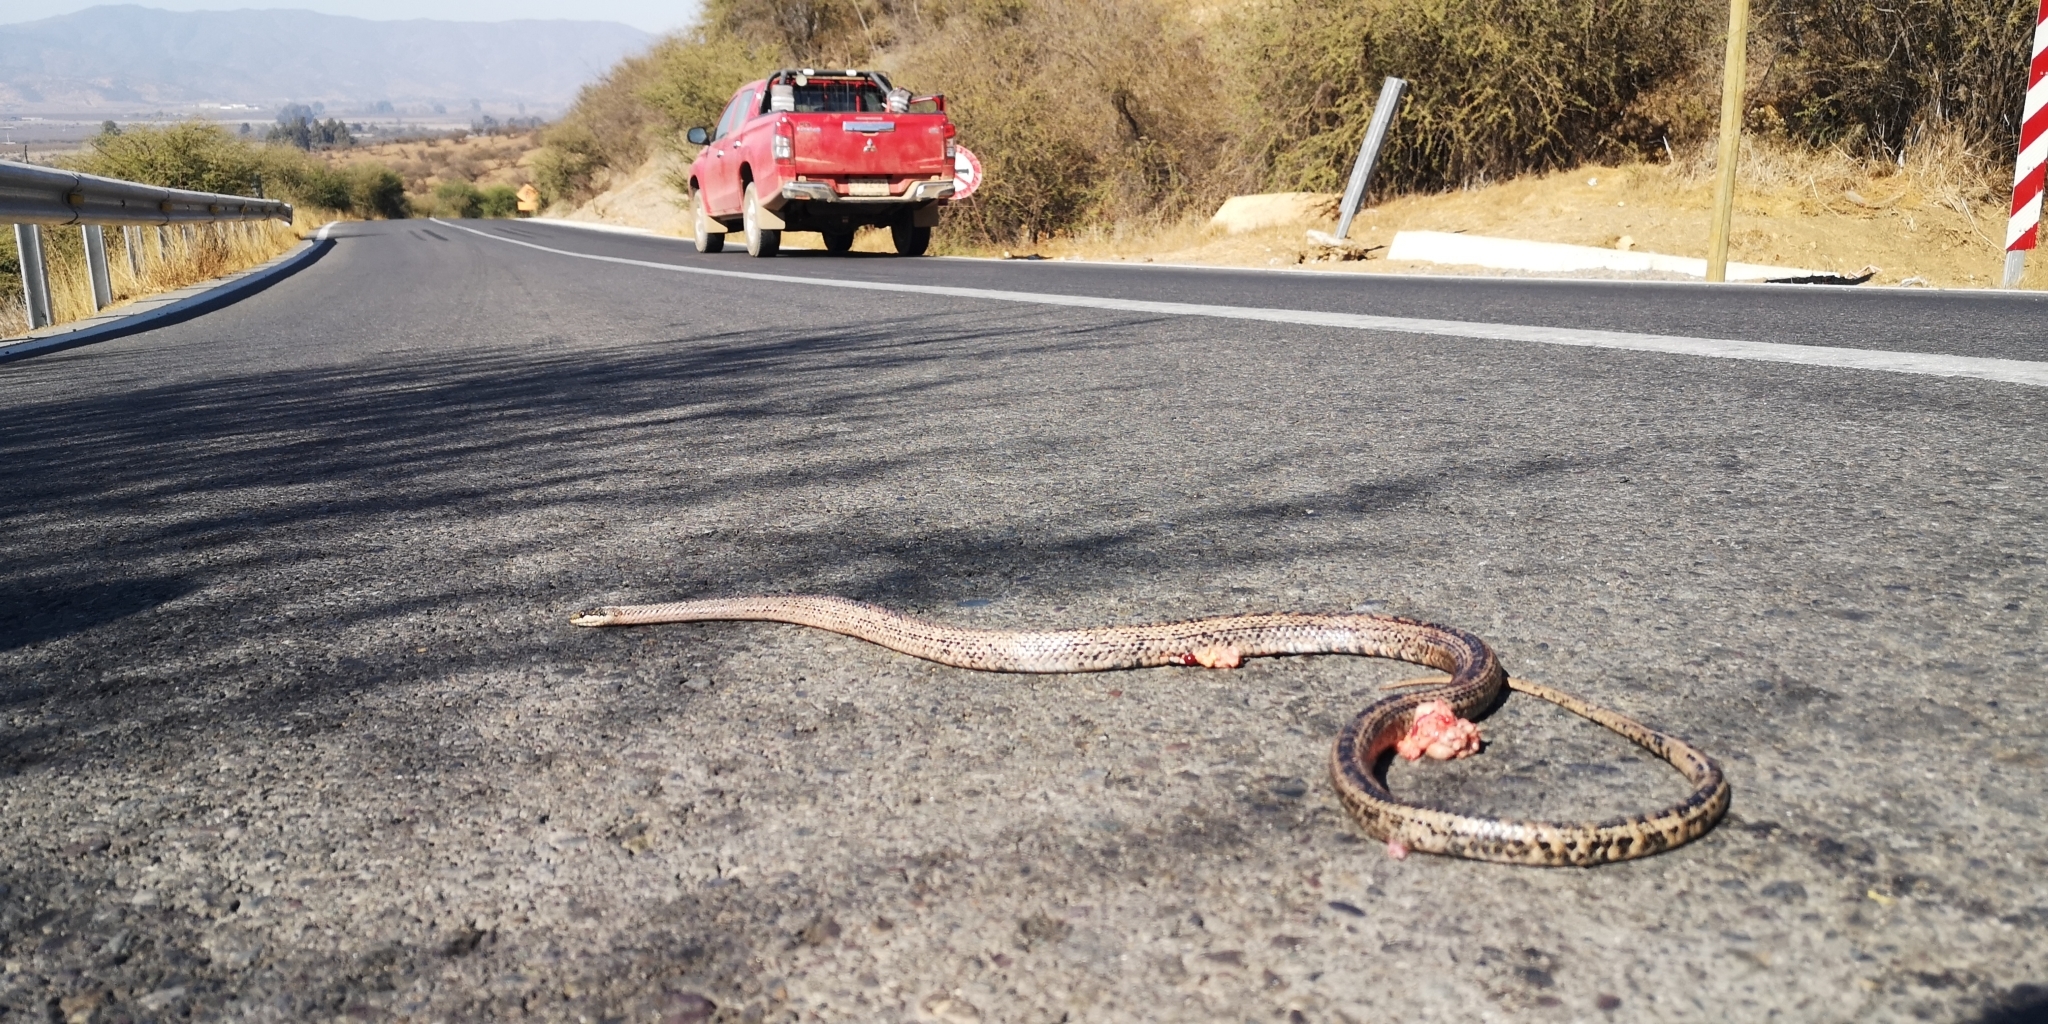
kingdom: Animalia
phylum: Chordata
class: Squamata
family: Colubridae
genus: Philodryas
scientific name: Philodryas chamissonis
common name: Chilean green racer
